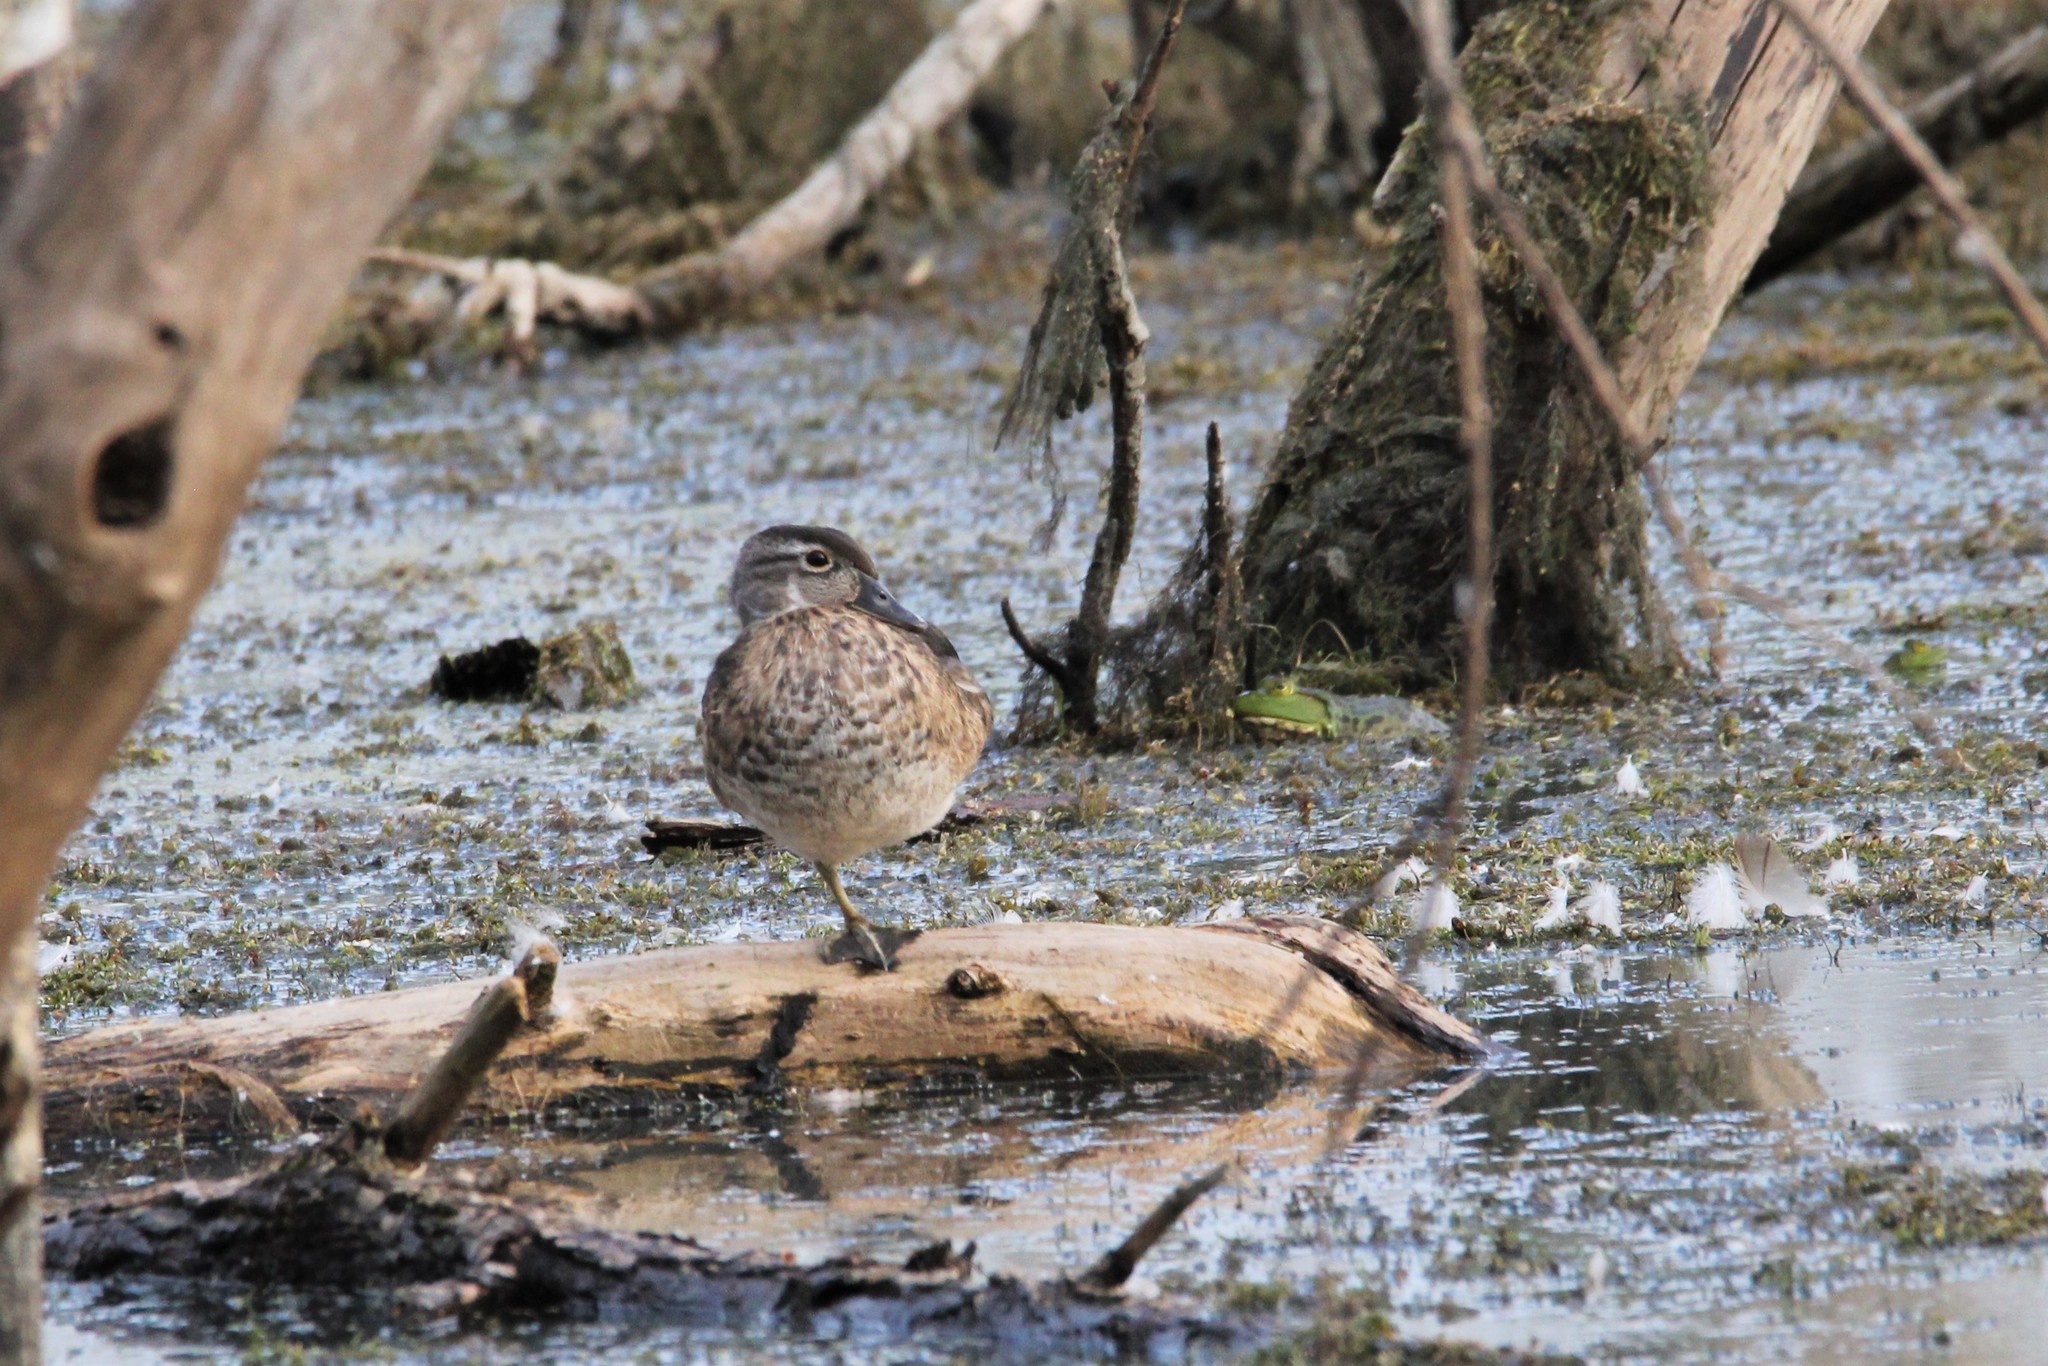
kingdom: Animalia
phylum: Chordata
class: Aves
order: Anseriformes
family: Anatidae
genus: Aix
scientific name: Aix sponsa
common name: Wood duck
